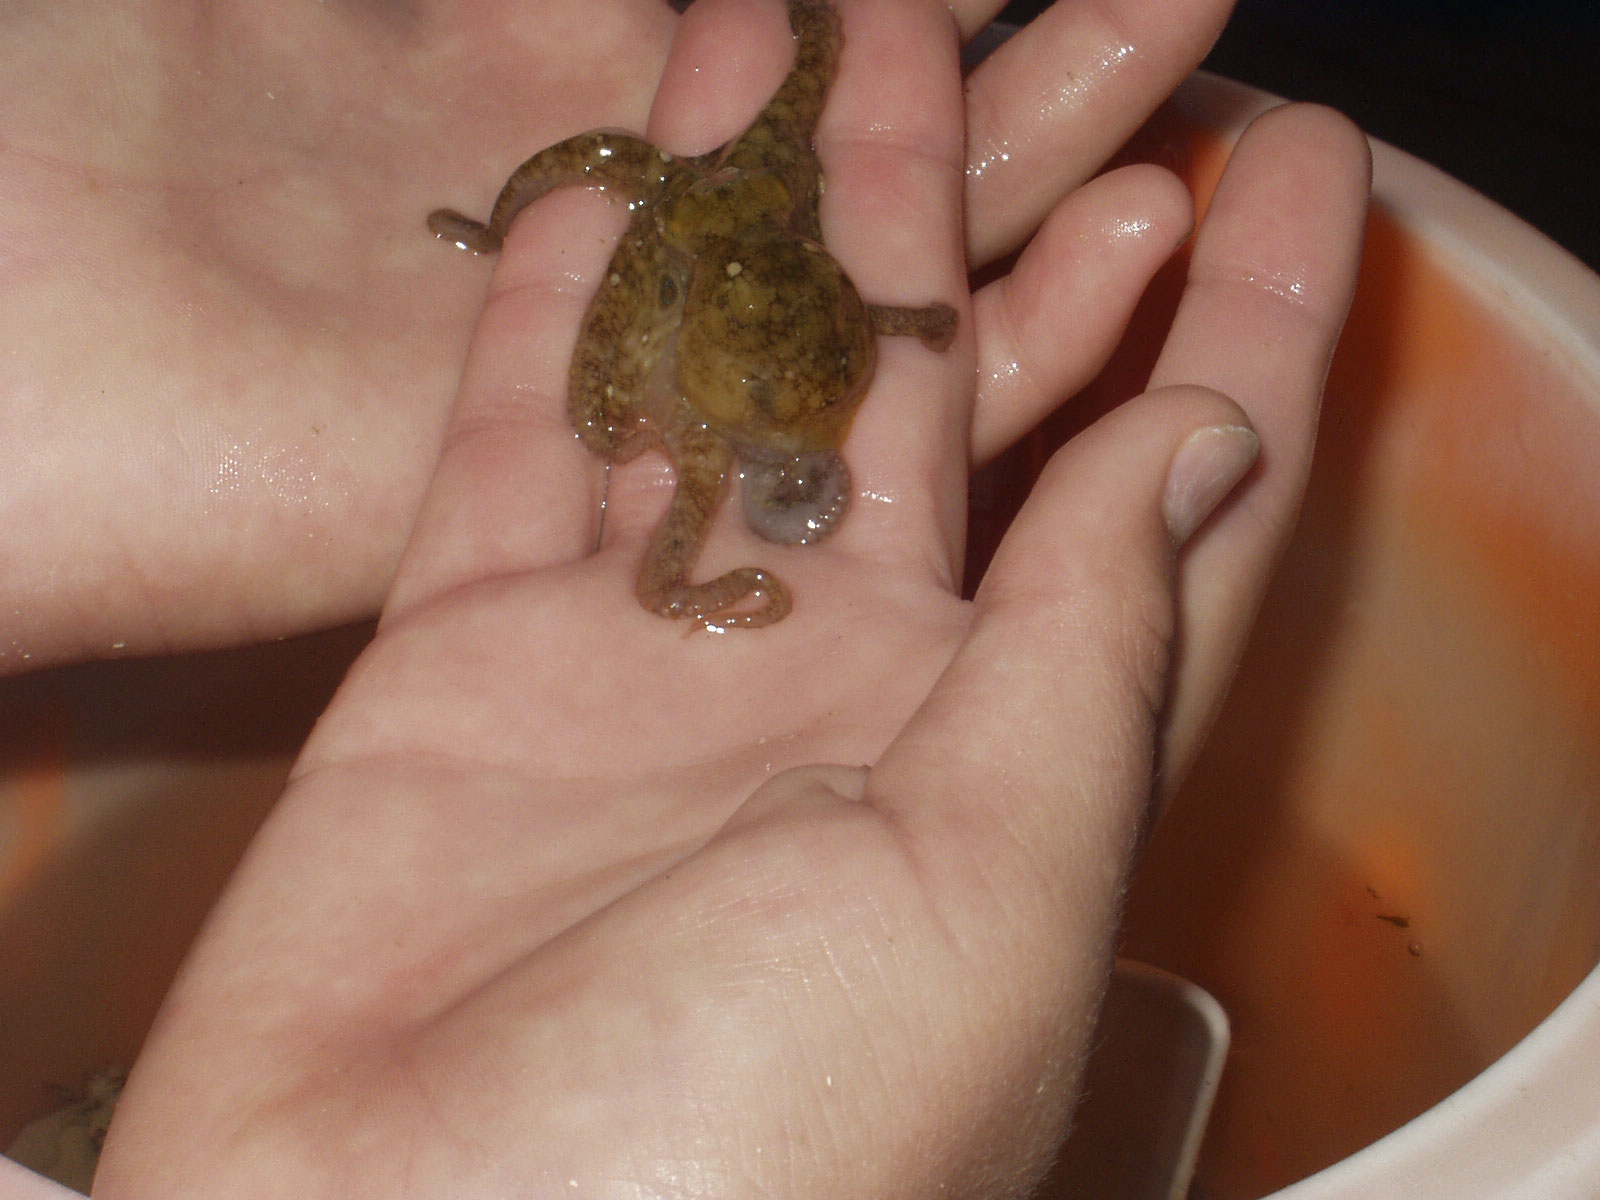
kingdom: Animalia
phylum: Mollusca
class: Cephalopoda
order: Octopoda
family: Octopodidae
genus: Octopus
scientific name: Octopus bimaculoides
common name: California two-spot octopus
